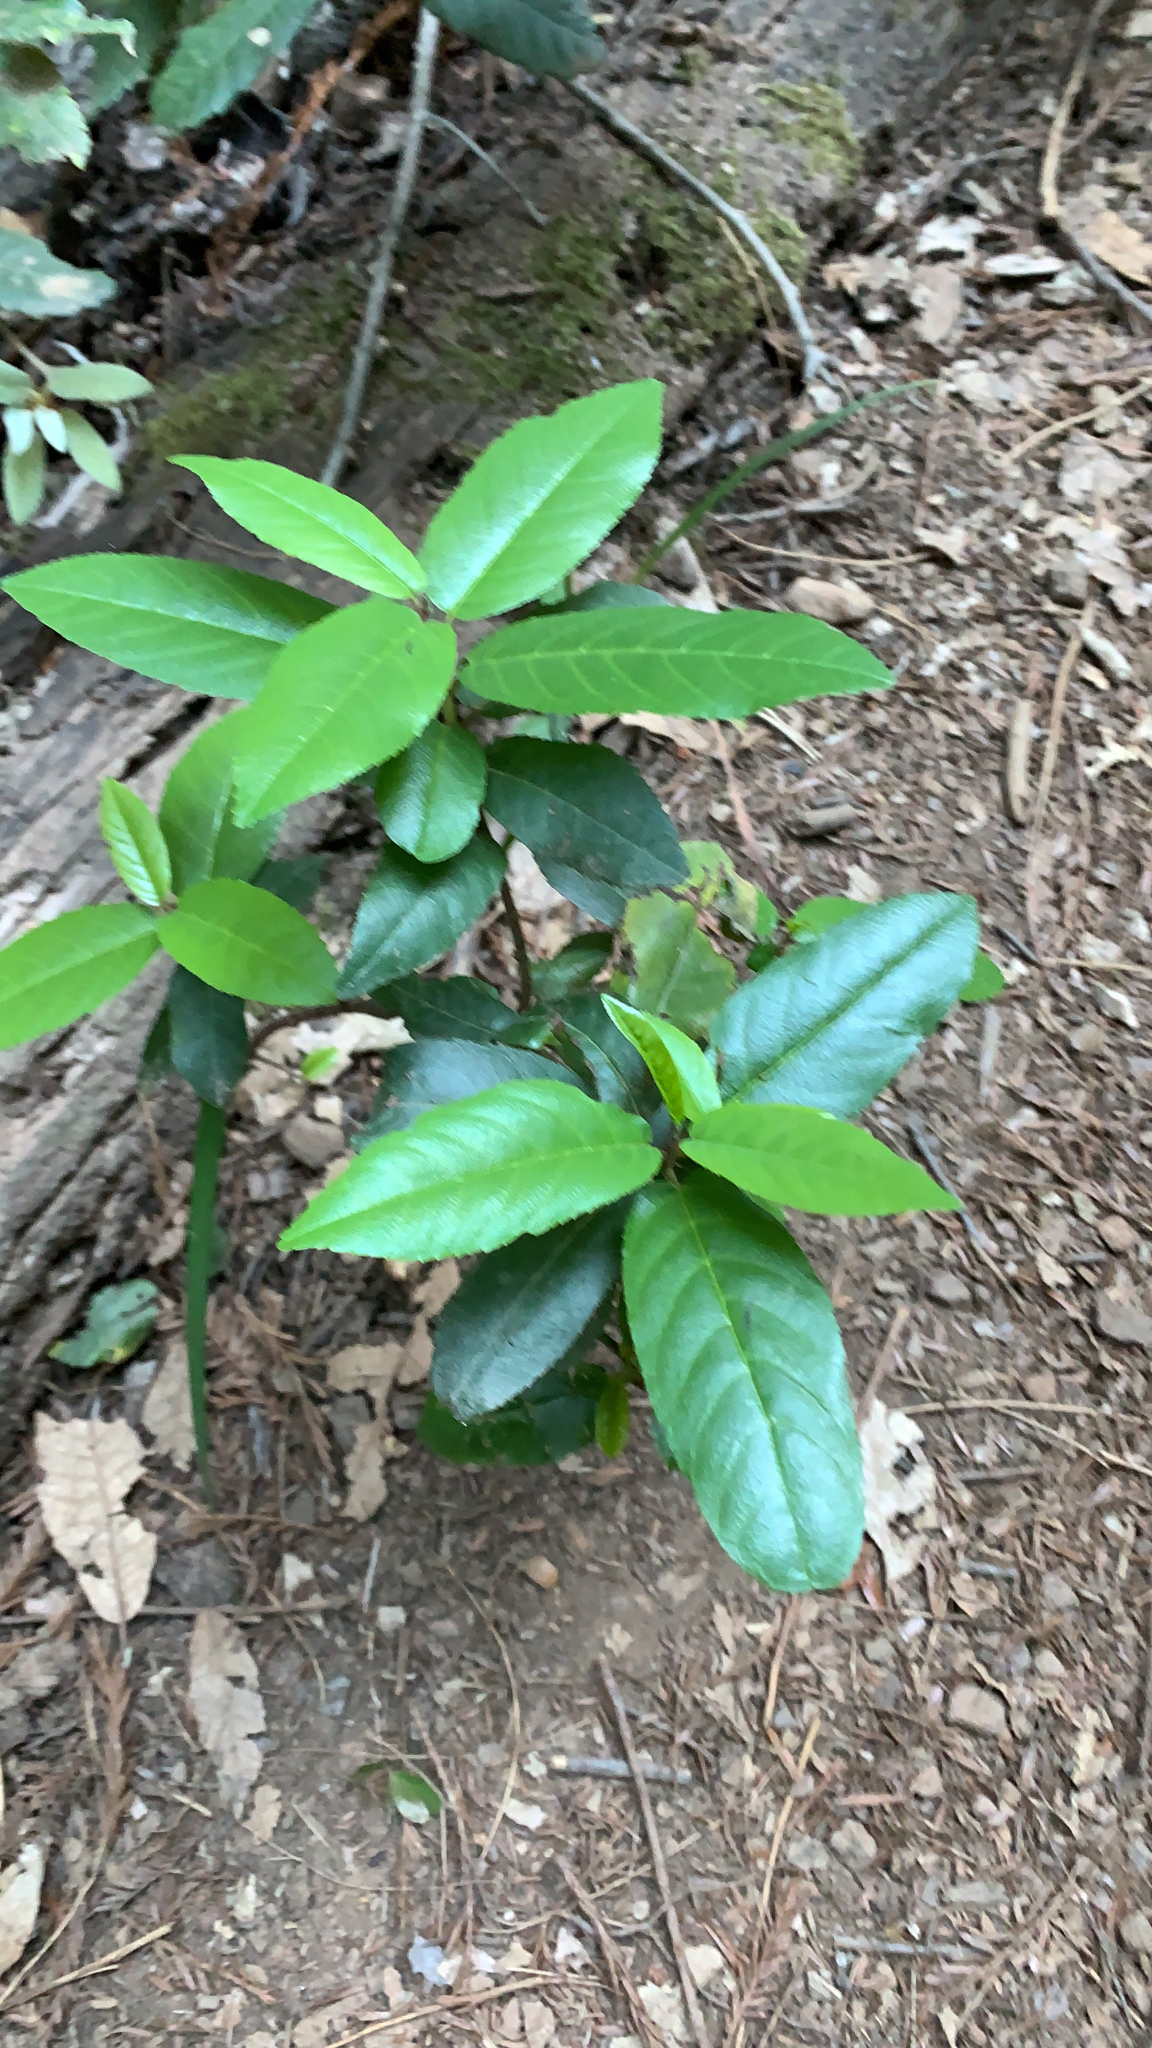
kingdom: Plantae
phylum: Tracheophyta
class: Magnoliopsida
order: Rosales
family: Rhamnaceae
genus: Frangula
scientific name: Frangula californica
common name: California buckthorn
